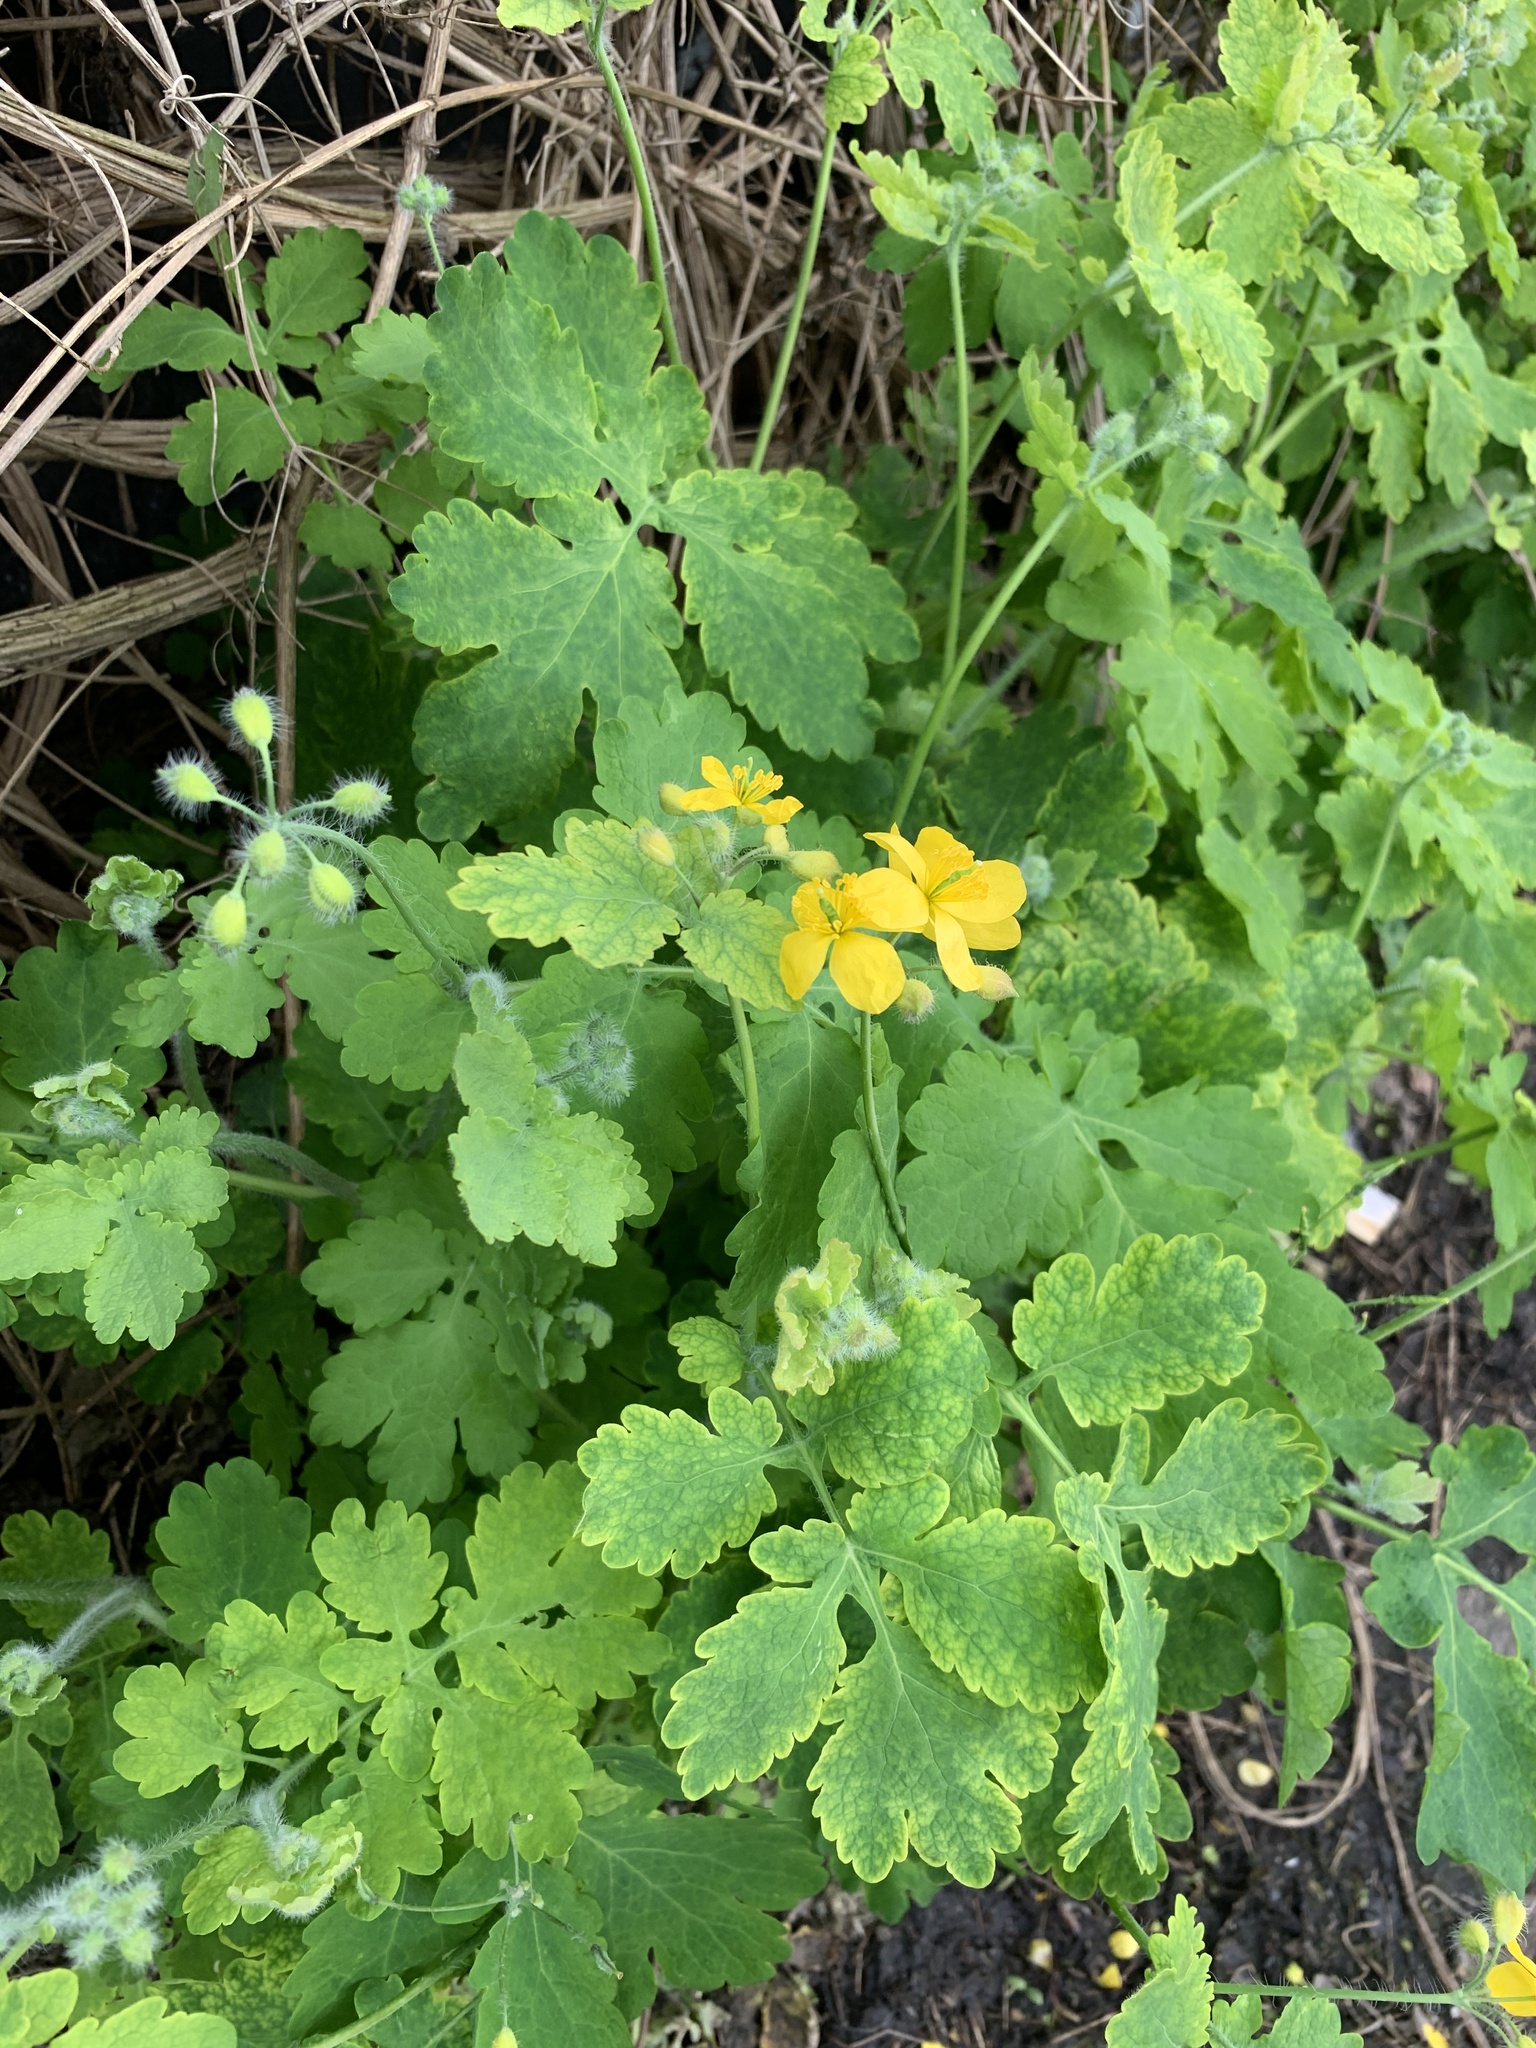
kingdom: Plantae
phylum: Tracheophyta
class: Magnoliopsida
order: Ranunculales
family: Papaveraceae
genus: Chelidonium
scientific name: Chelidonium majus
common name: Greater celandine
